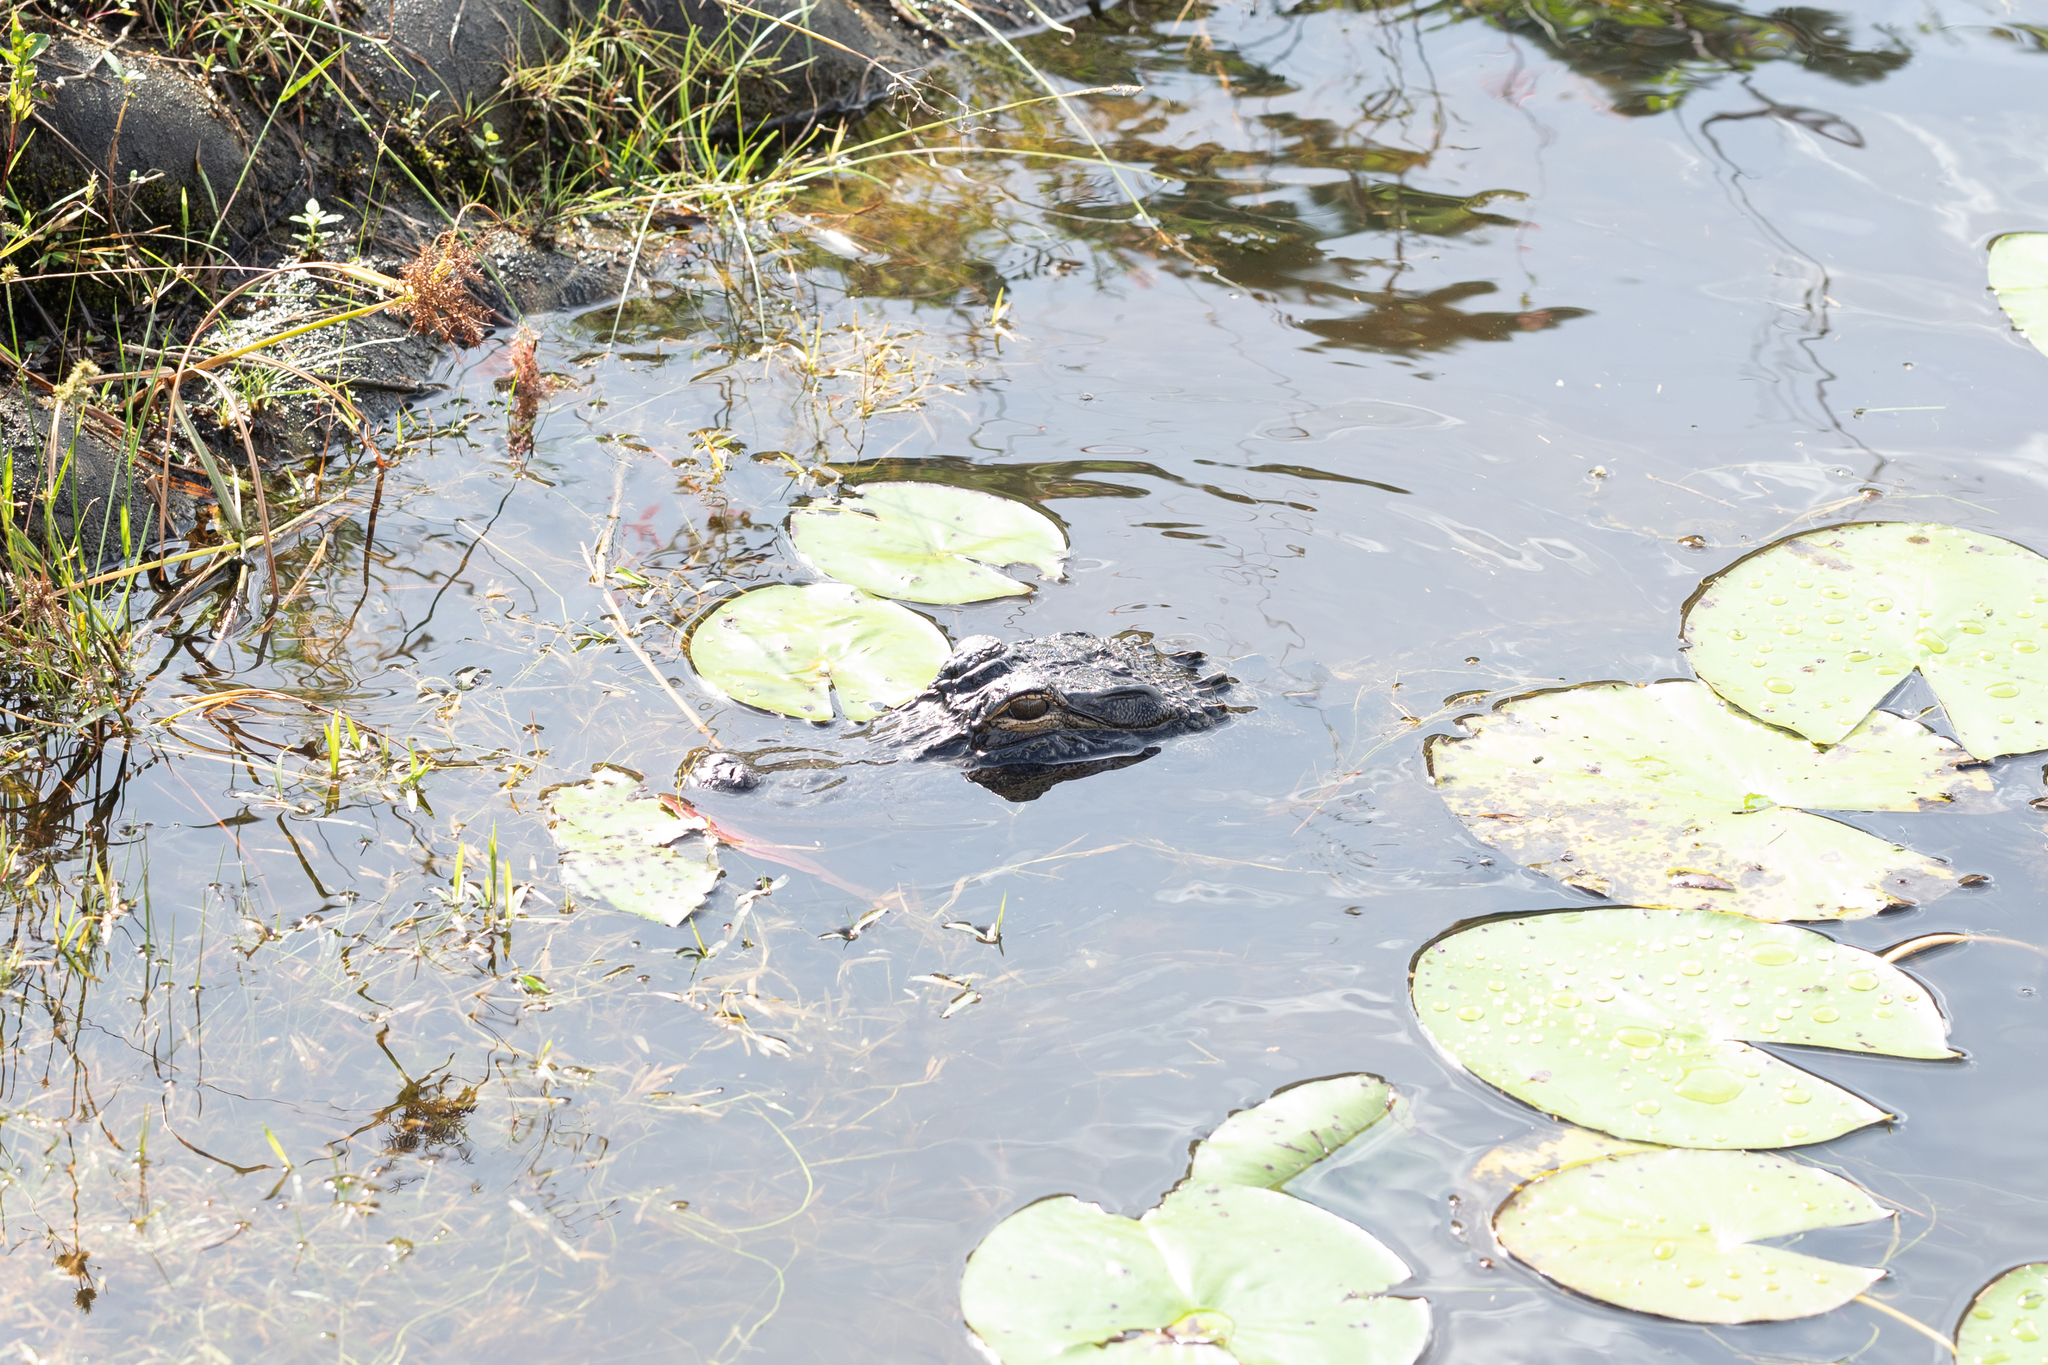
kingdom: Animalia
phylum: Chordata
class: Crocodylia
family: Alligatoridae
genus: Alligator
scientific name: Alligator mississippiensis
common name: American alligator
